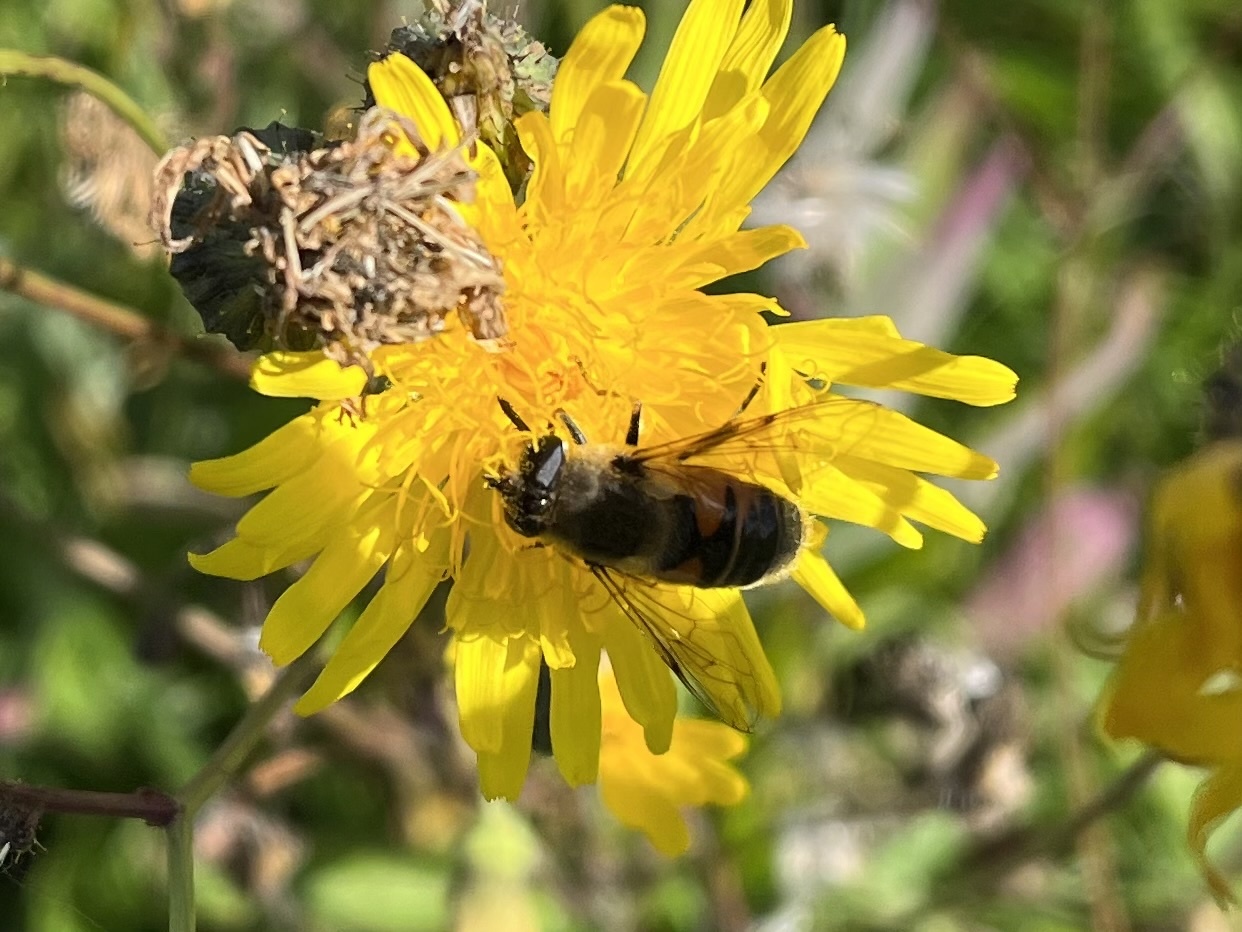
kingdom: Animalia
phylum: Arthropoda
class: Insecta
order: Diptera
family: Syrphidae
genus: Eristalis
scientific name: Eristalis tenax
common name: Drone fly
